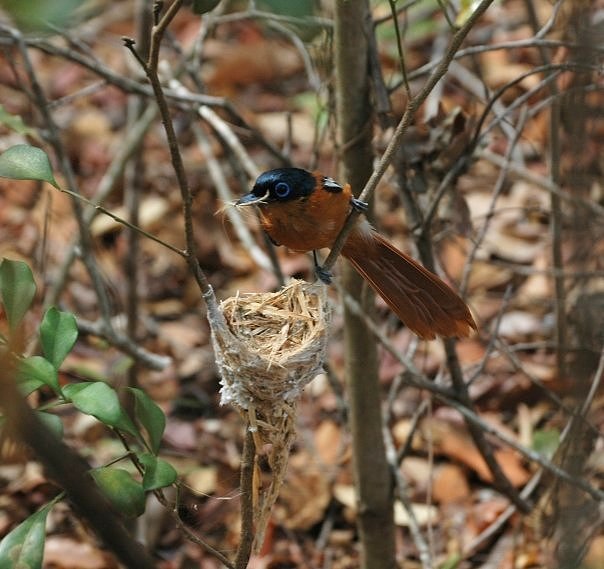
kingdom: Animalia
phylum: Chordata
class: Aves
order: Passeriformes
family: Monarchidae
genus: Terpsiphone
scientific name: Terpsiphone mutata
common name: Malagasy paradise flycatcher
